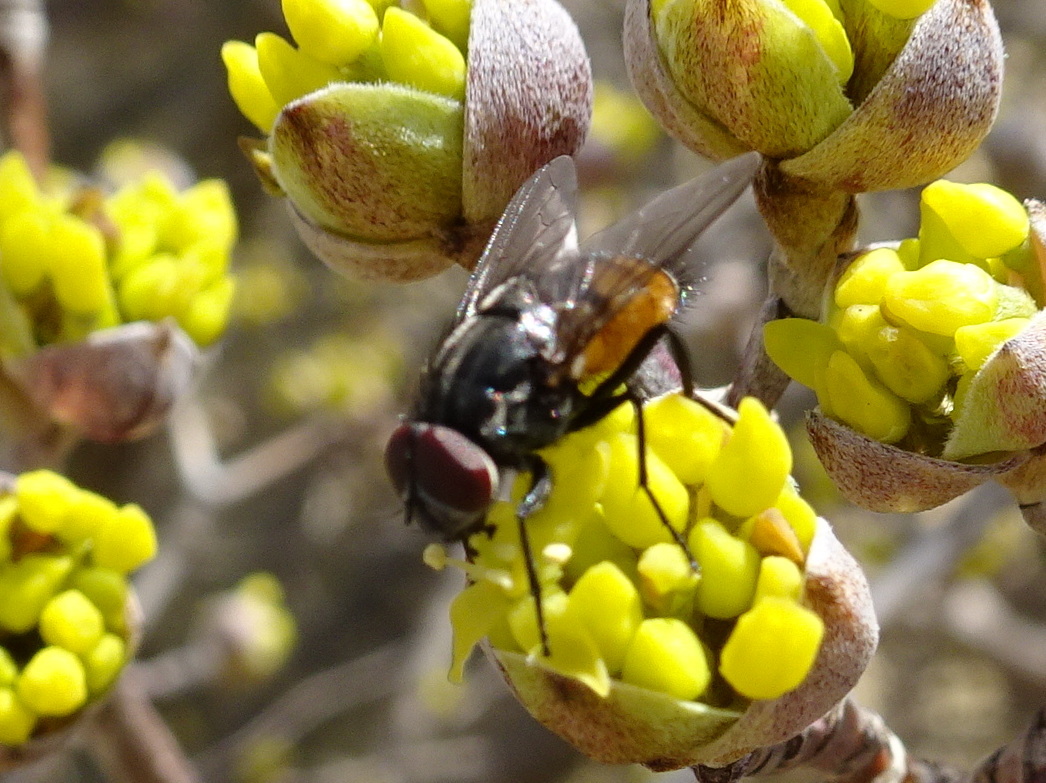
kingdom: Animalia
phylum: Arthropoda
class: Insecta
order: Diptera
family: Muscidae
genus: Musca
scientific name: Musca autumnalis
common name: Face fly
